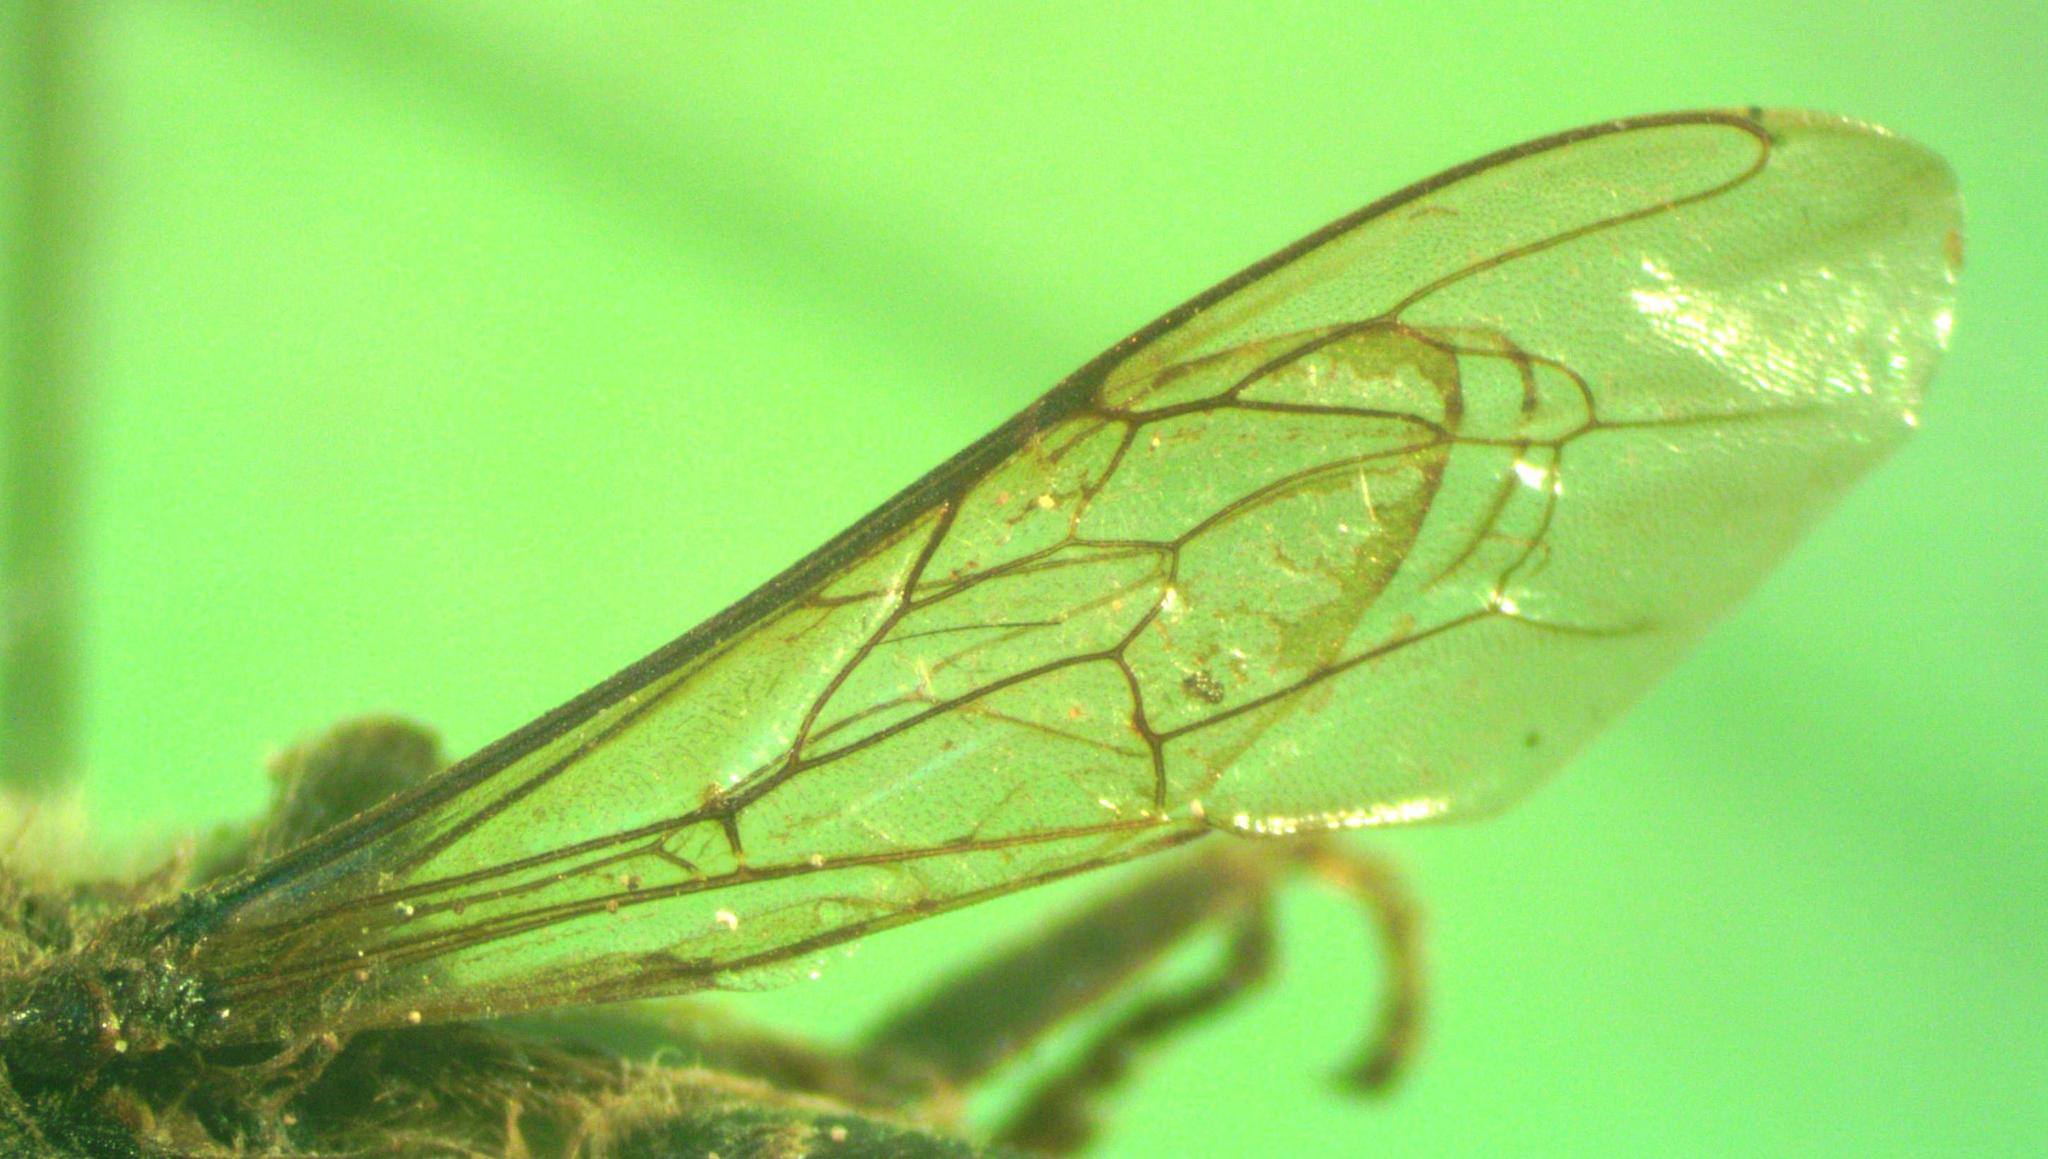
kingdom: Animalia
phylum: Arthropoda
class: Insecta
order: Hymenoptera
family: Apidae
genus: Apis
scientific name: Apis mellifera
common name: Honey bee
